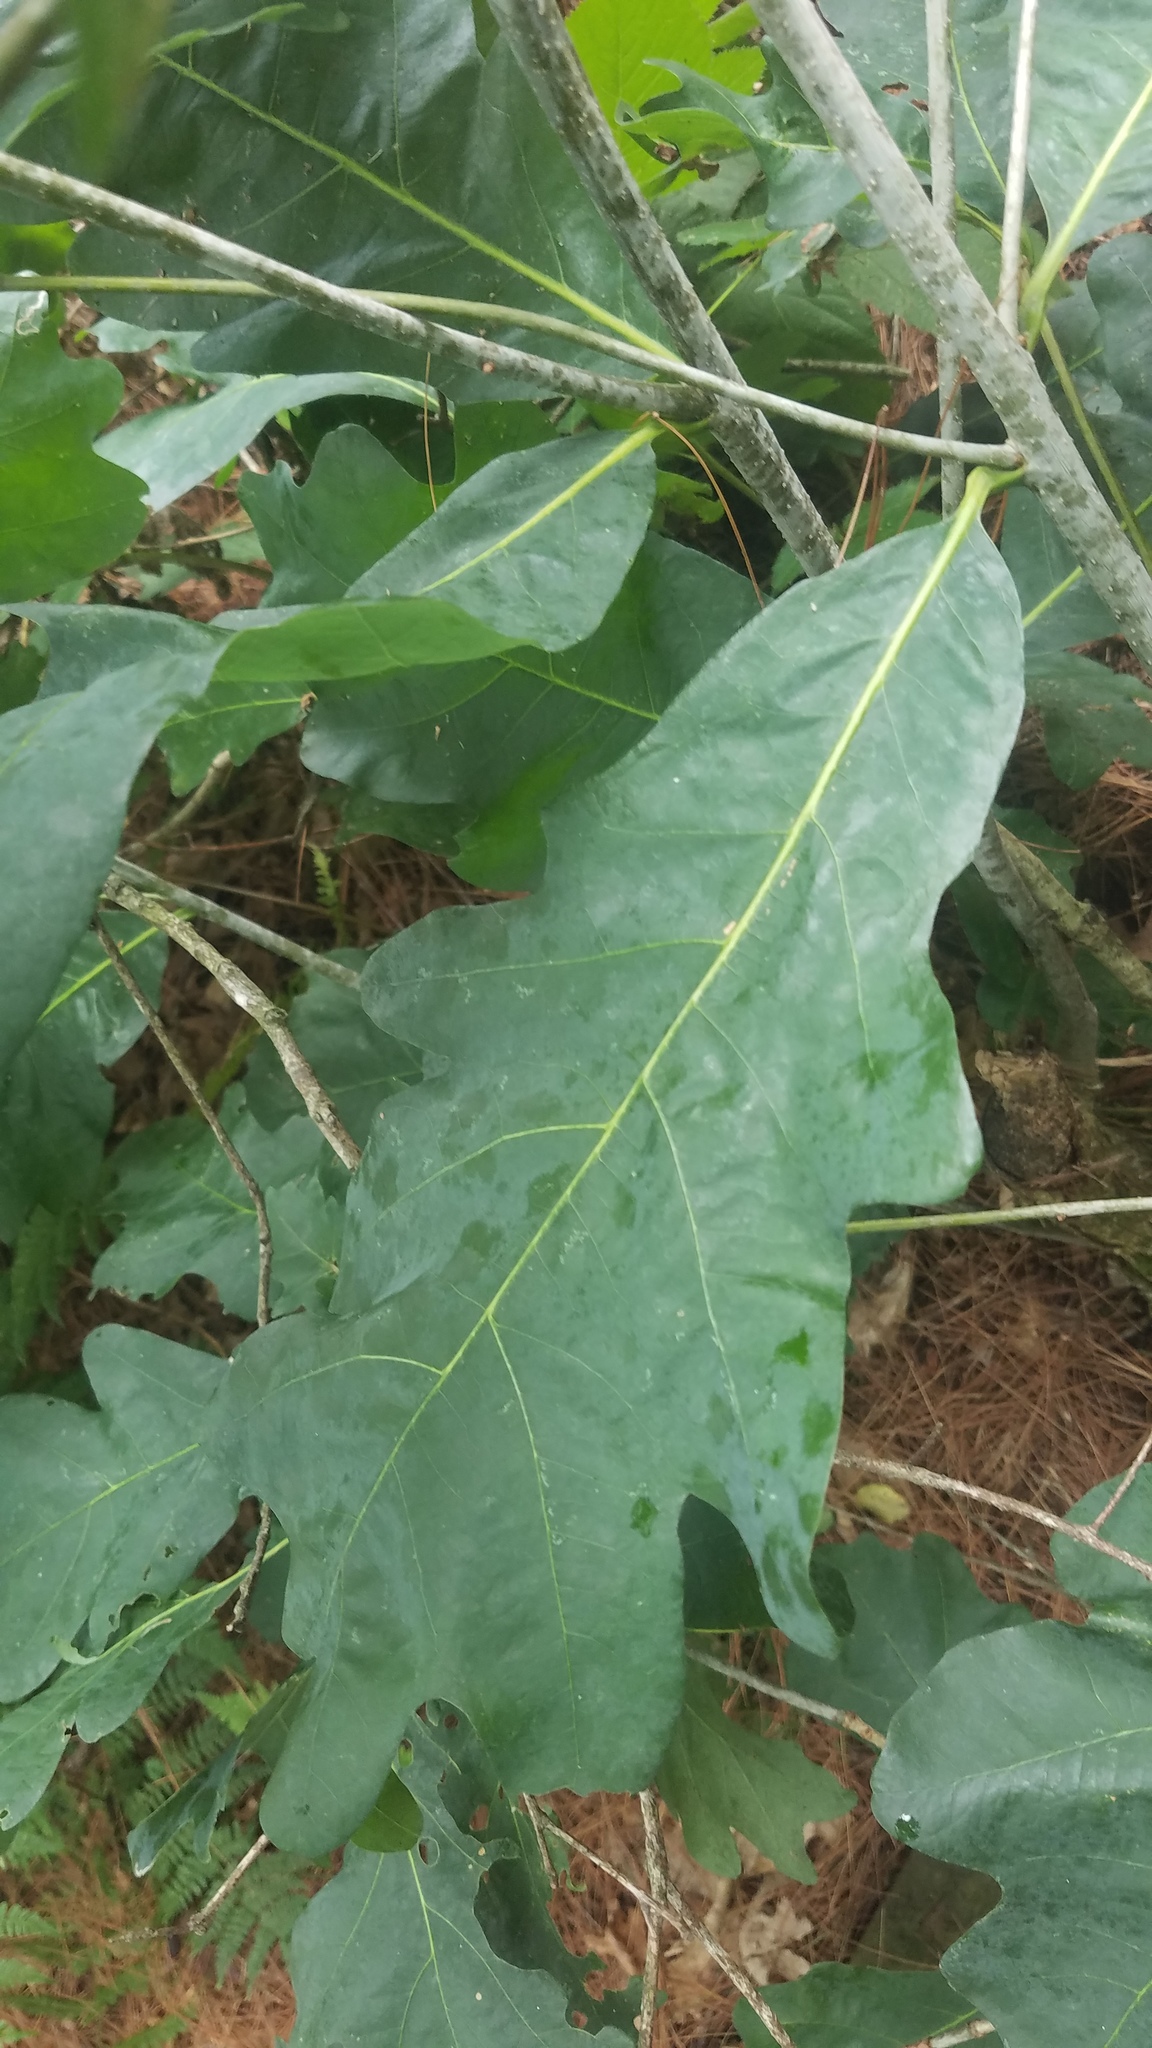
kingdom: Plantae
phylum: Tracheophyta
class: Magnoliopsida
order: Fagales
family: Fagaceae
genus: Quercus
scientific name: Quercus alba
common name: White oak
